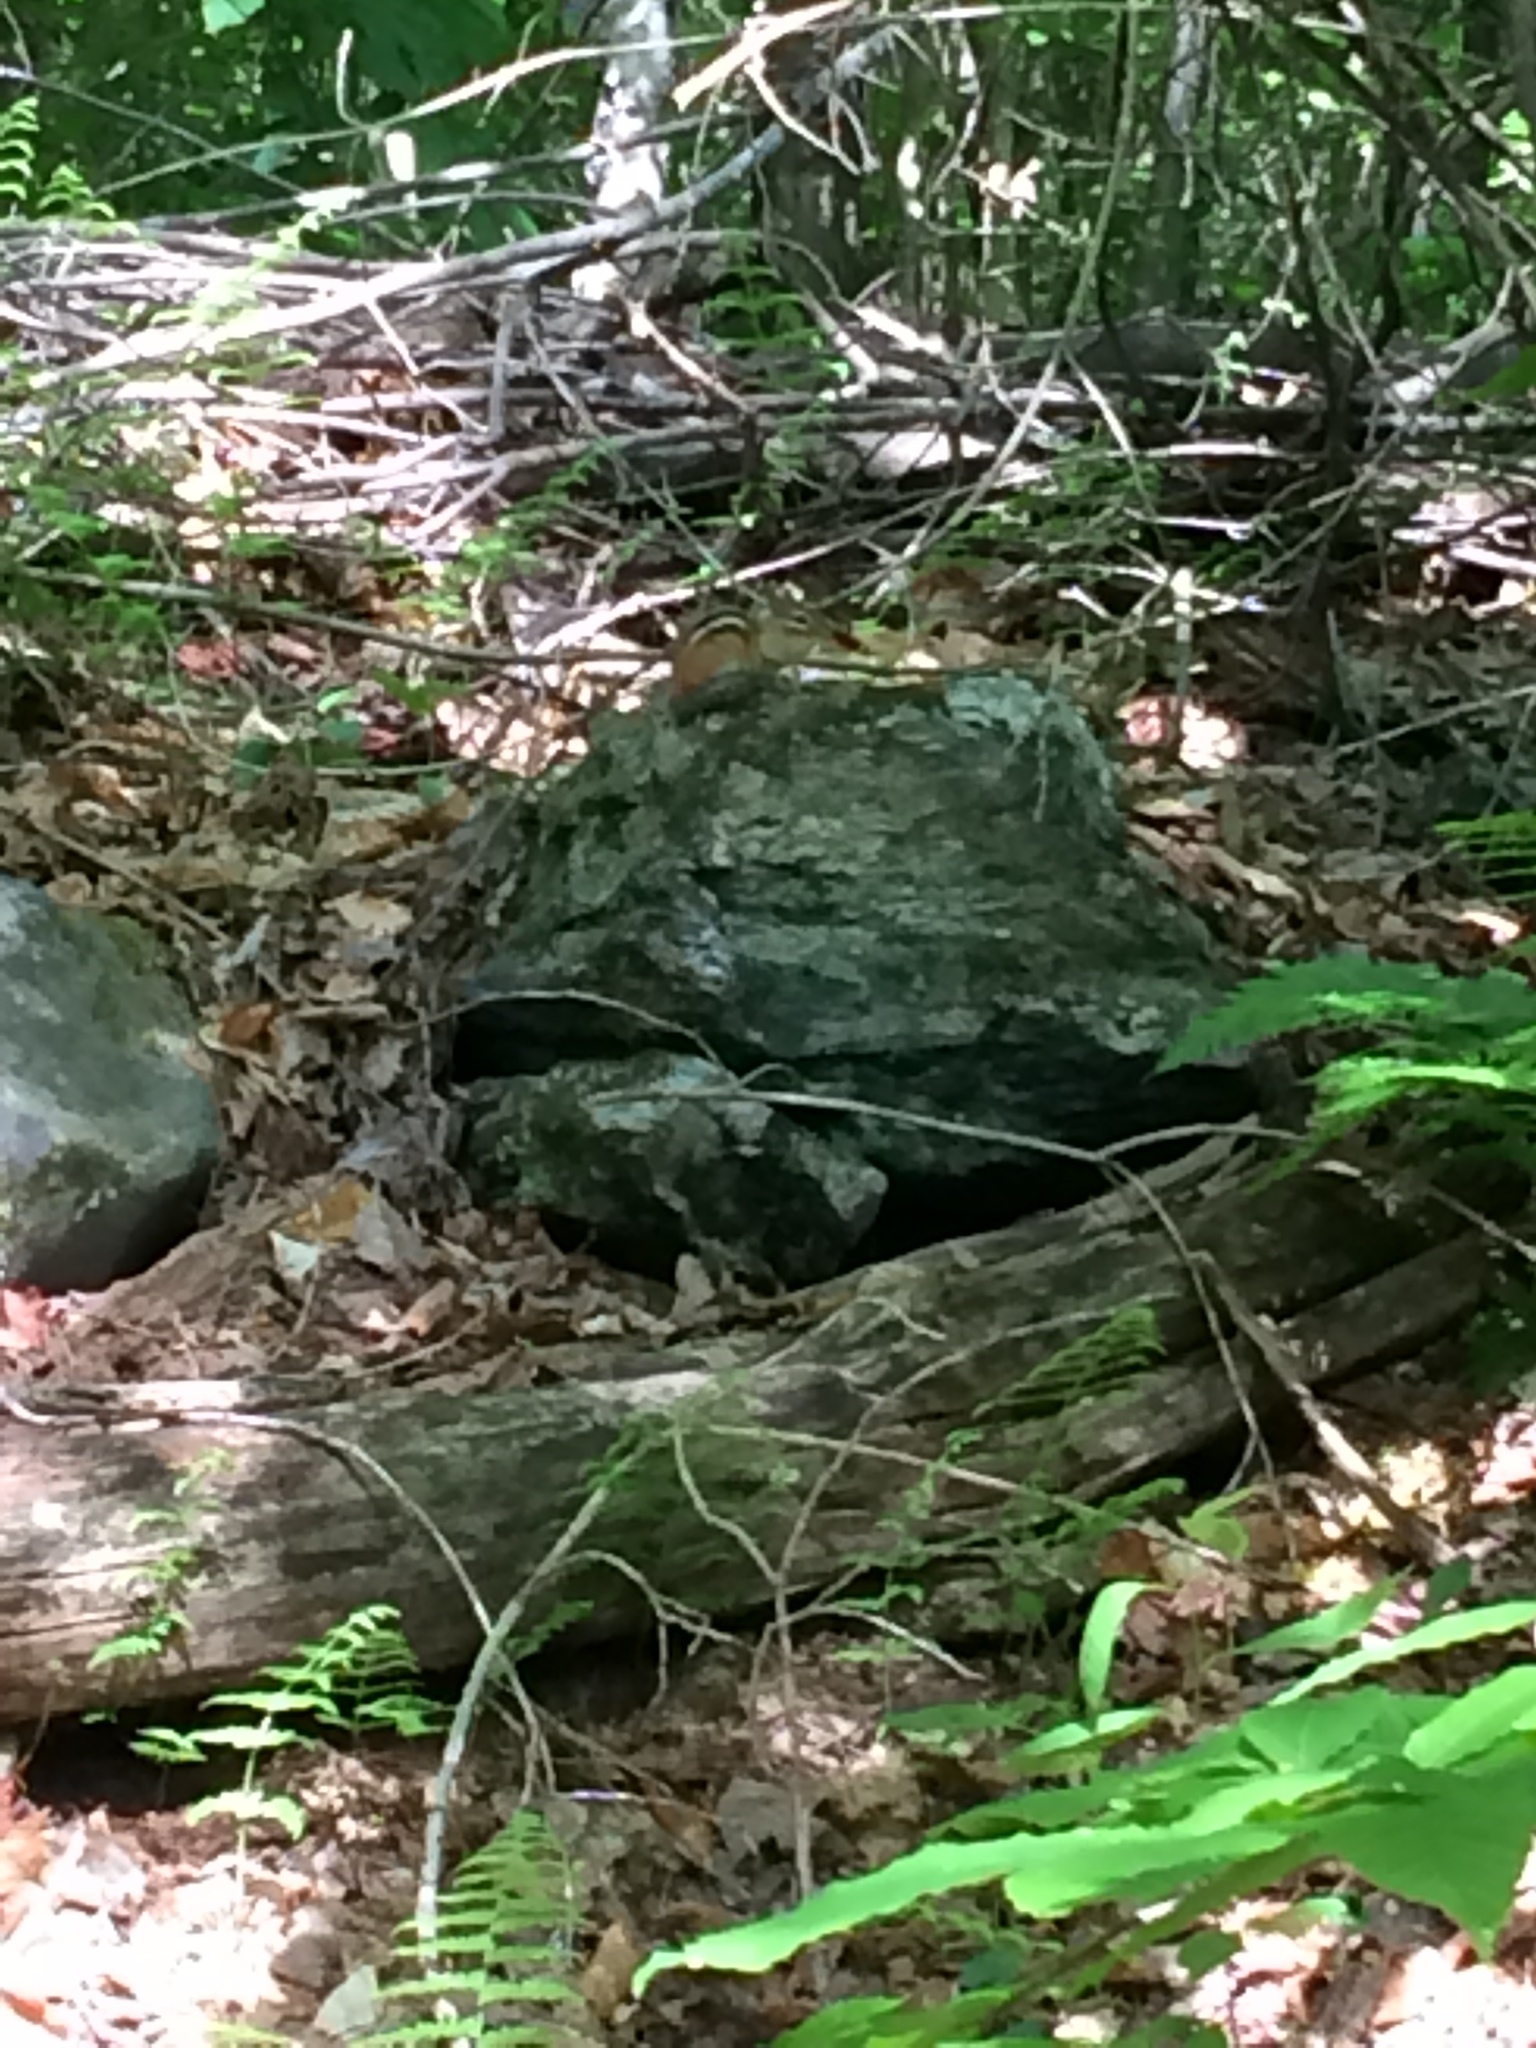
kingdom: Animalia
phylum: Chordata
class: Mammalia
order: Rodentia
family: Sciuridae
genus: Tamias
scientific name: Tamias striatus
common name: Eastern chipmunk
